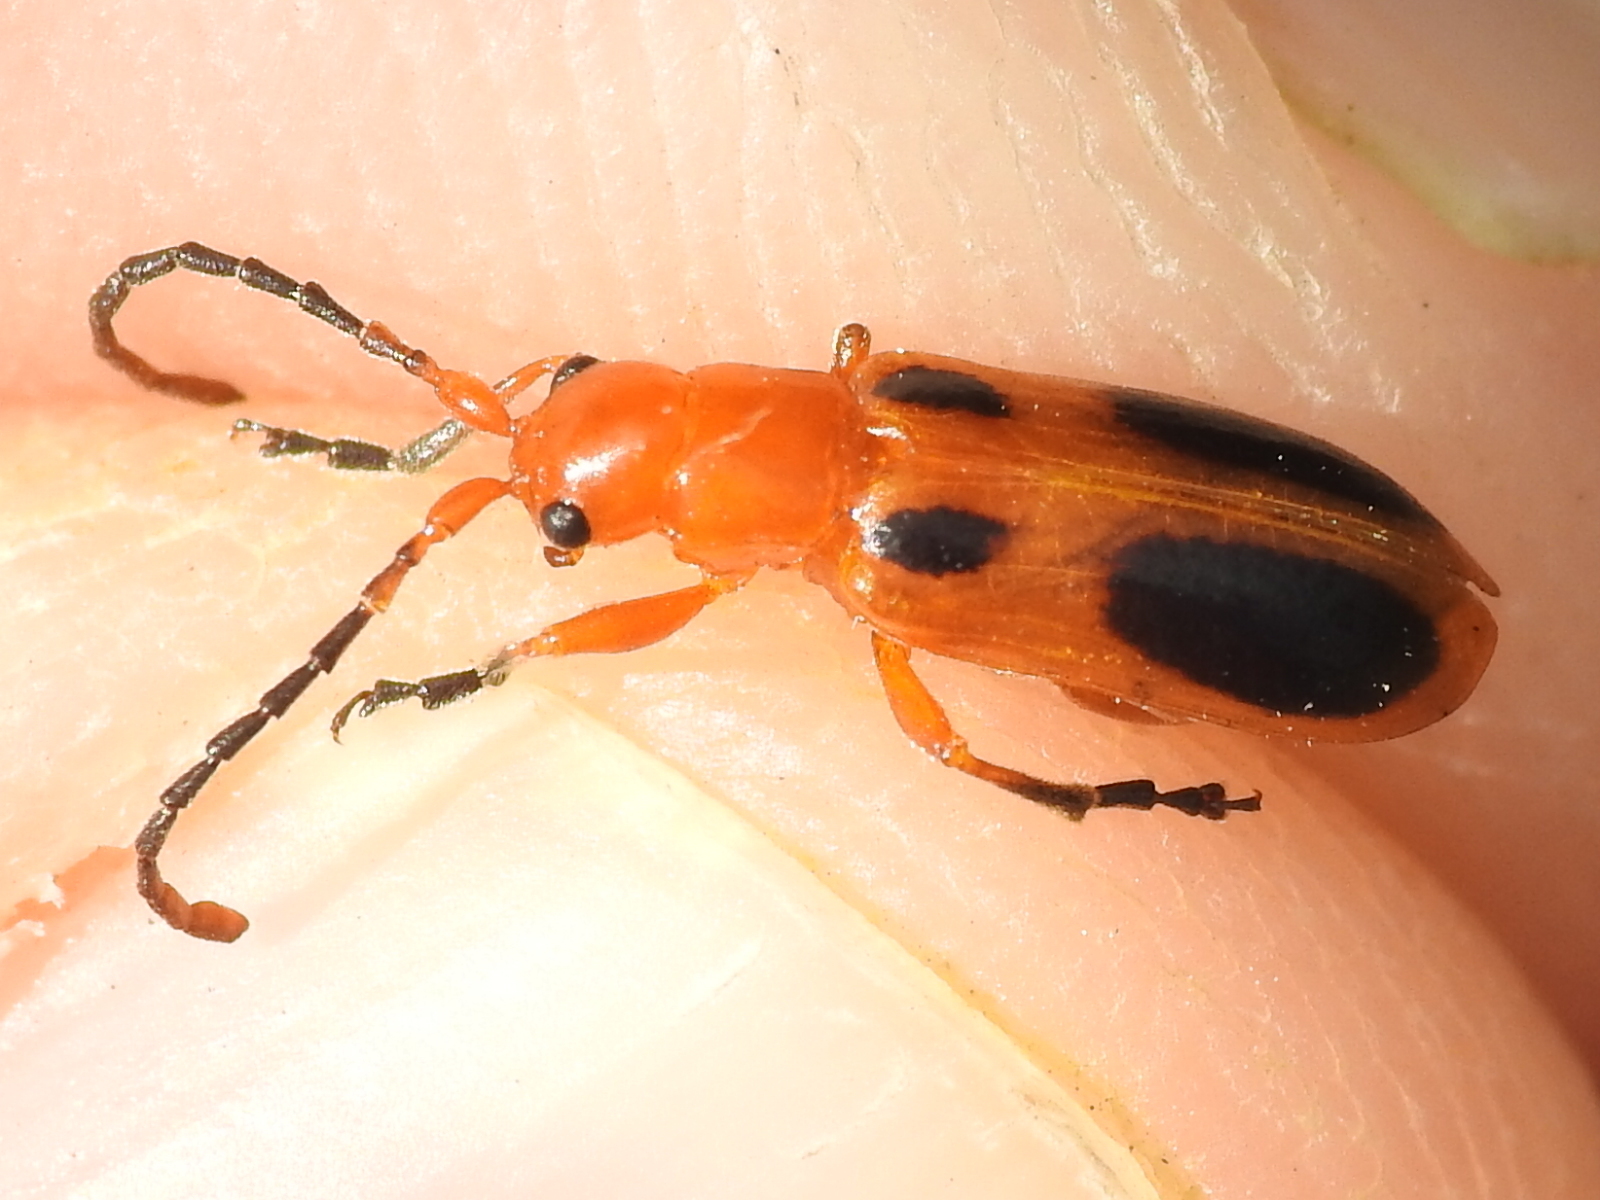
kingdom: Animalia
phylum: Arthropoda
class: Insecta
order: Coleoptera
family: Chrysomelidae
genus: Phyllobrotica
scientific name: Phyllobrotica sororia
